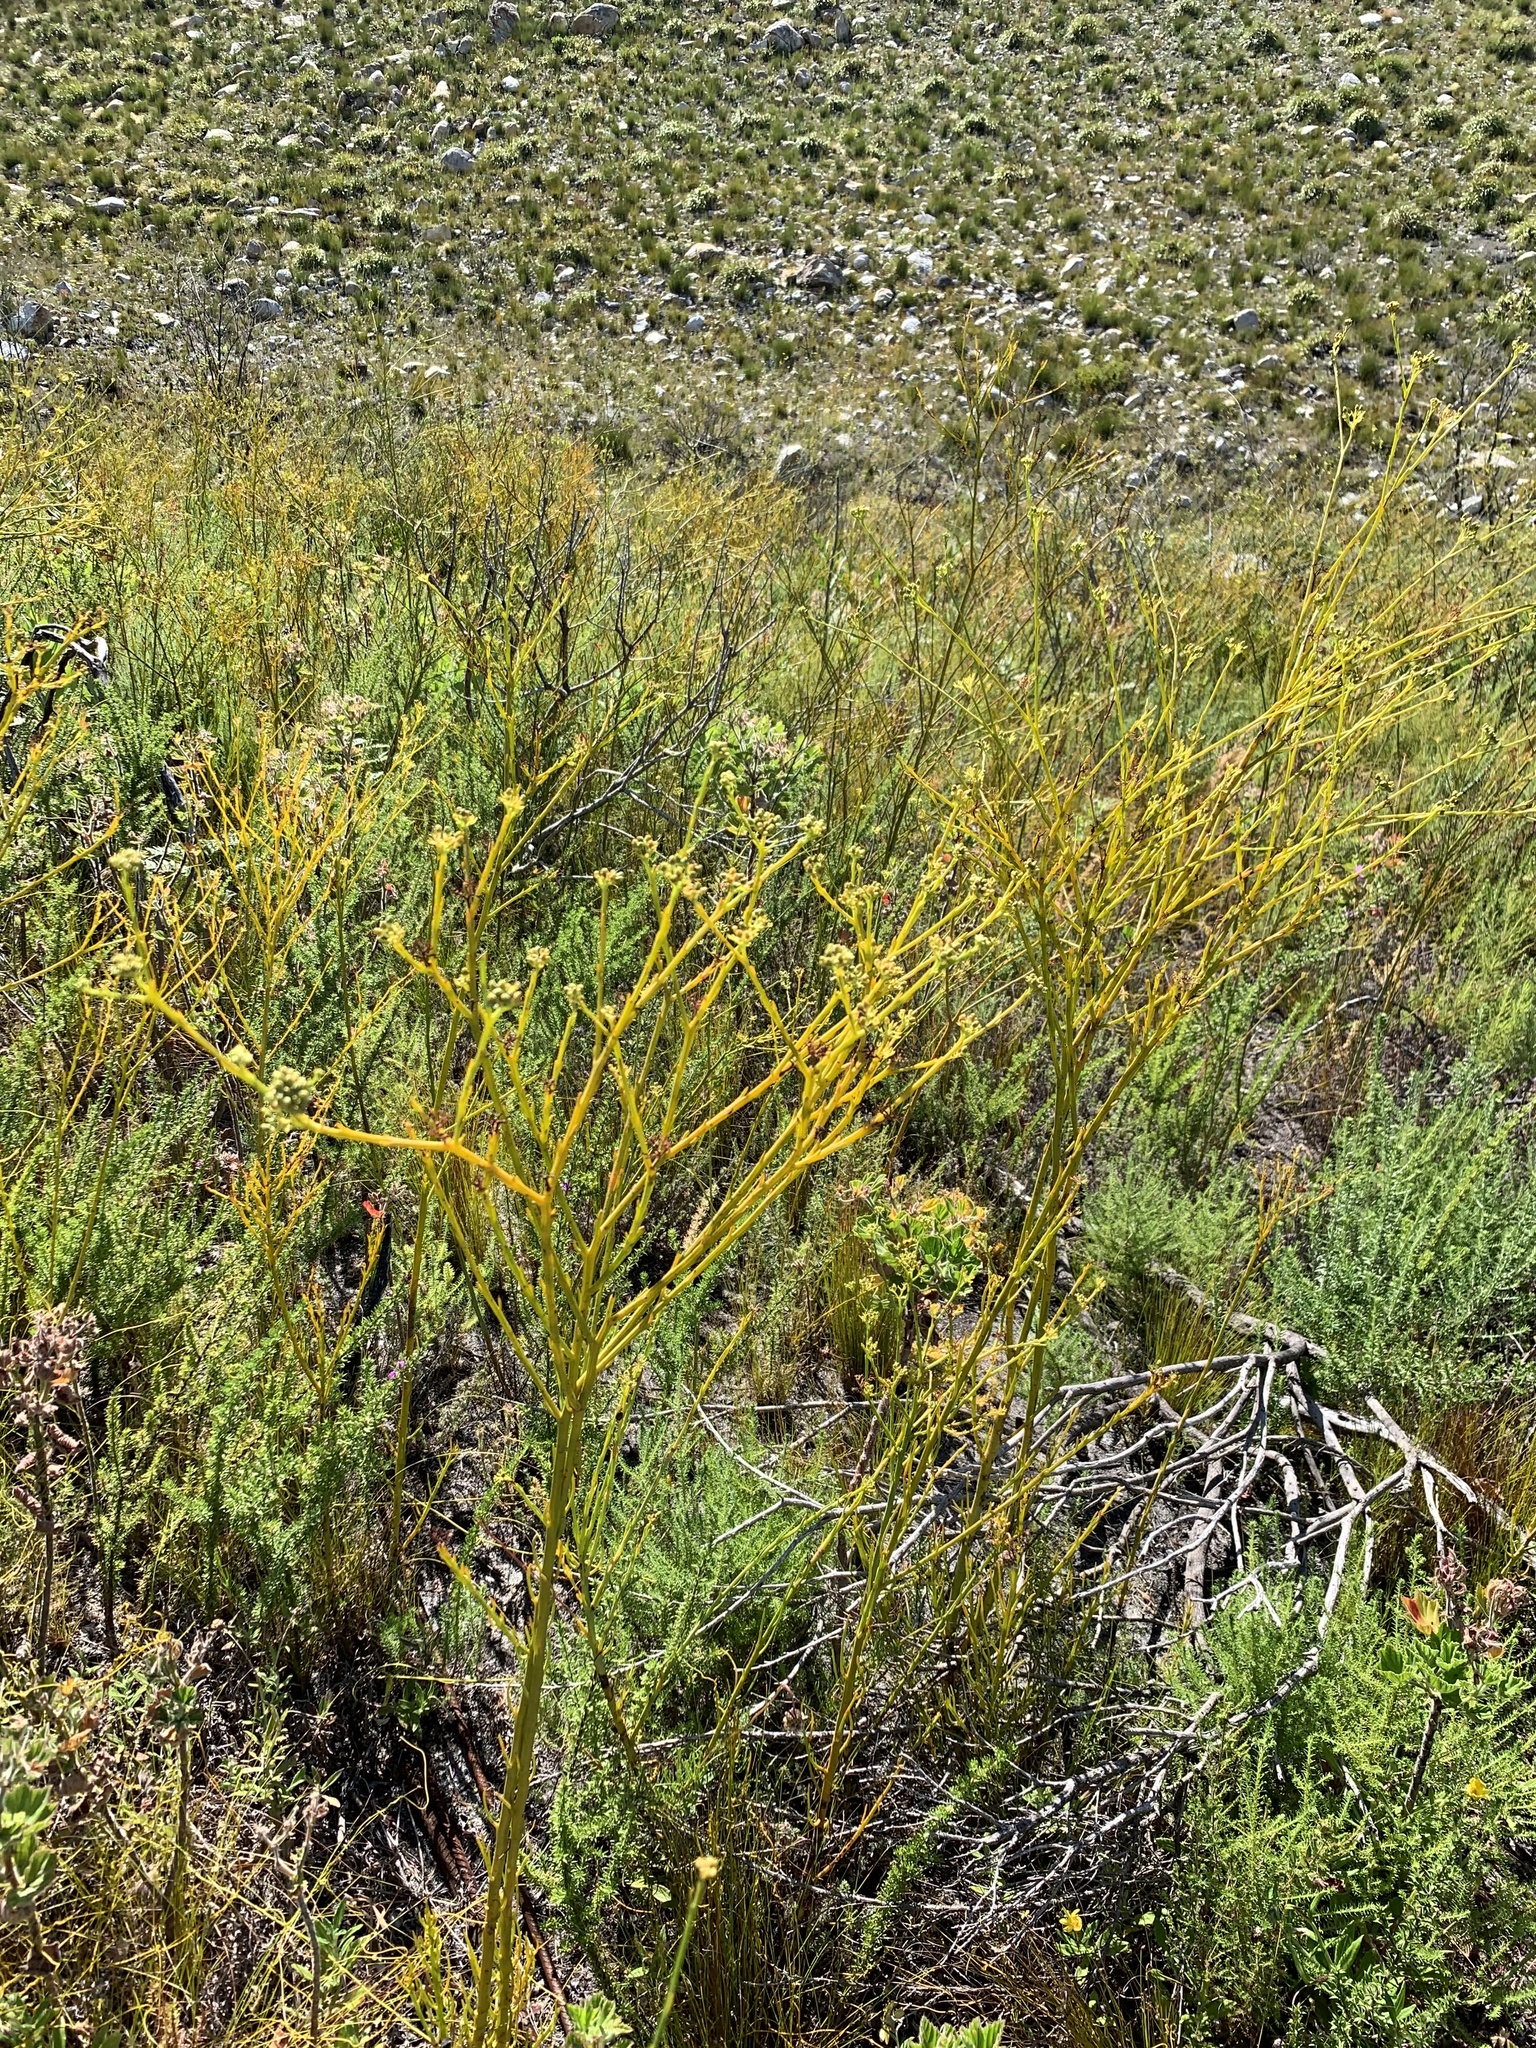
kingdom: Plantae
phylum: Tracheophyta
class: Magnoliopsida
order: Santalales
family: Thesiaceae
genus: Thesium
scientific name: Thesium strictum
